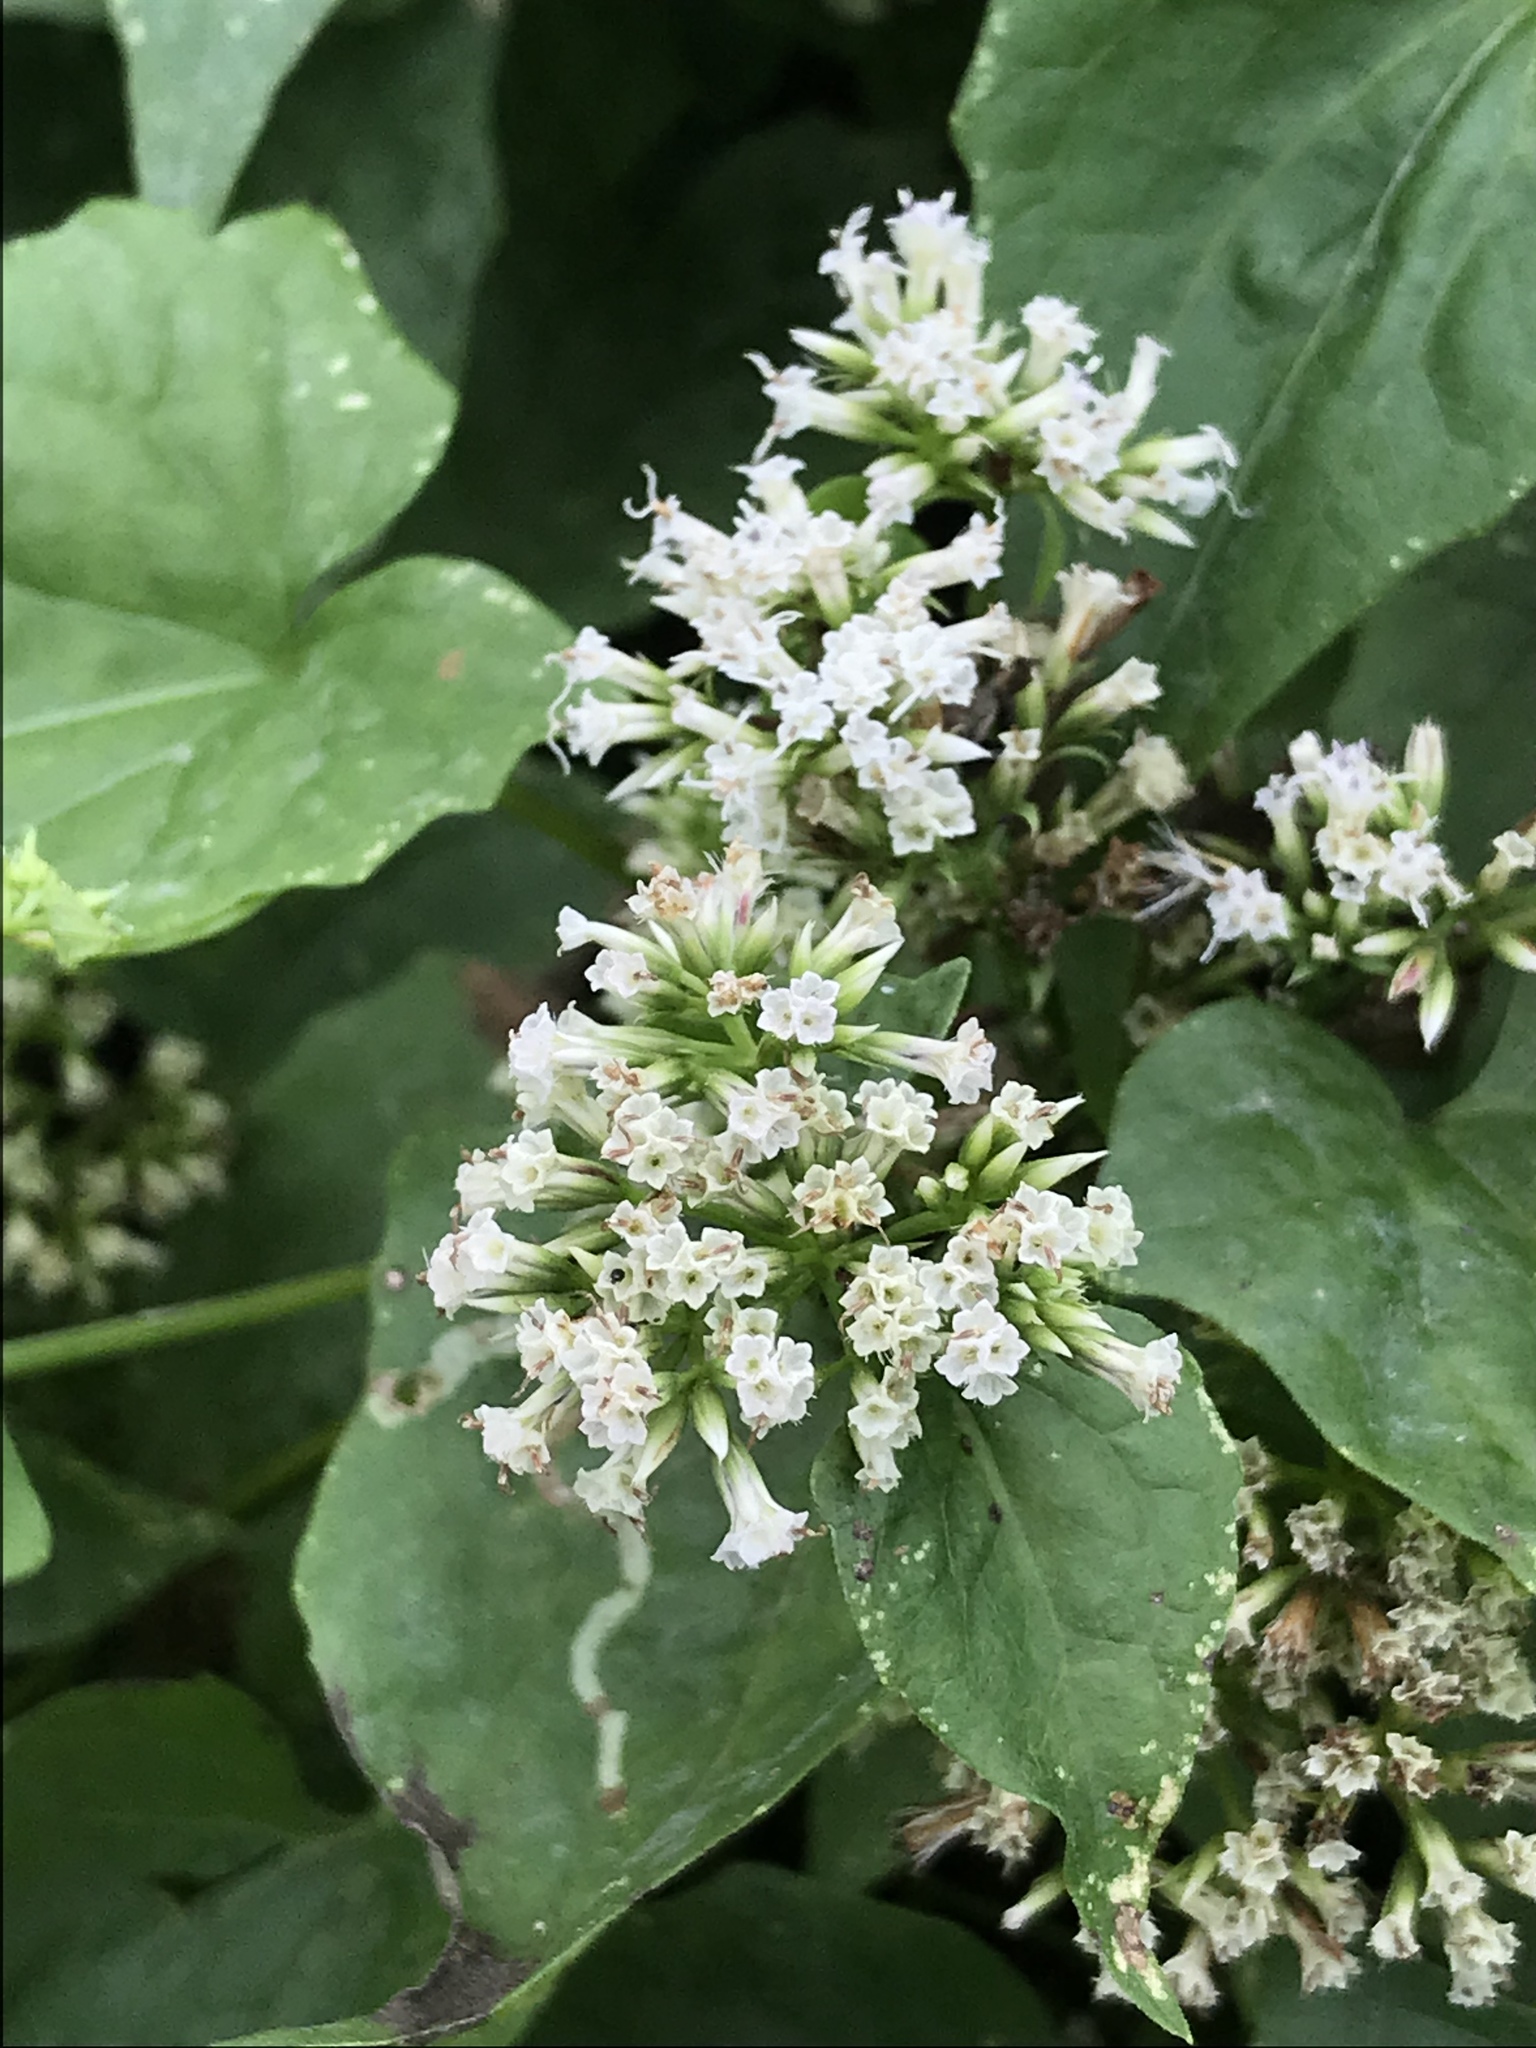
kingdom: Plantae
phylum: Tracheophyta
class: Magnoliopsida
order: Asterales
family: Asteraceae
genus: Mikania
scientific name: Mikania scandens
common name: Climbing hempvine
